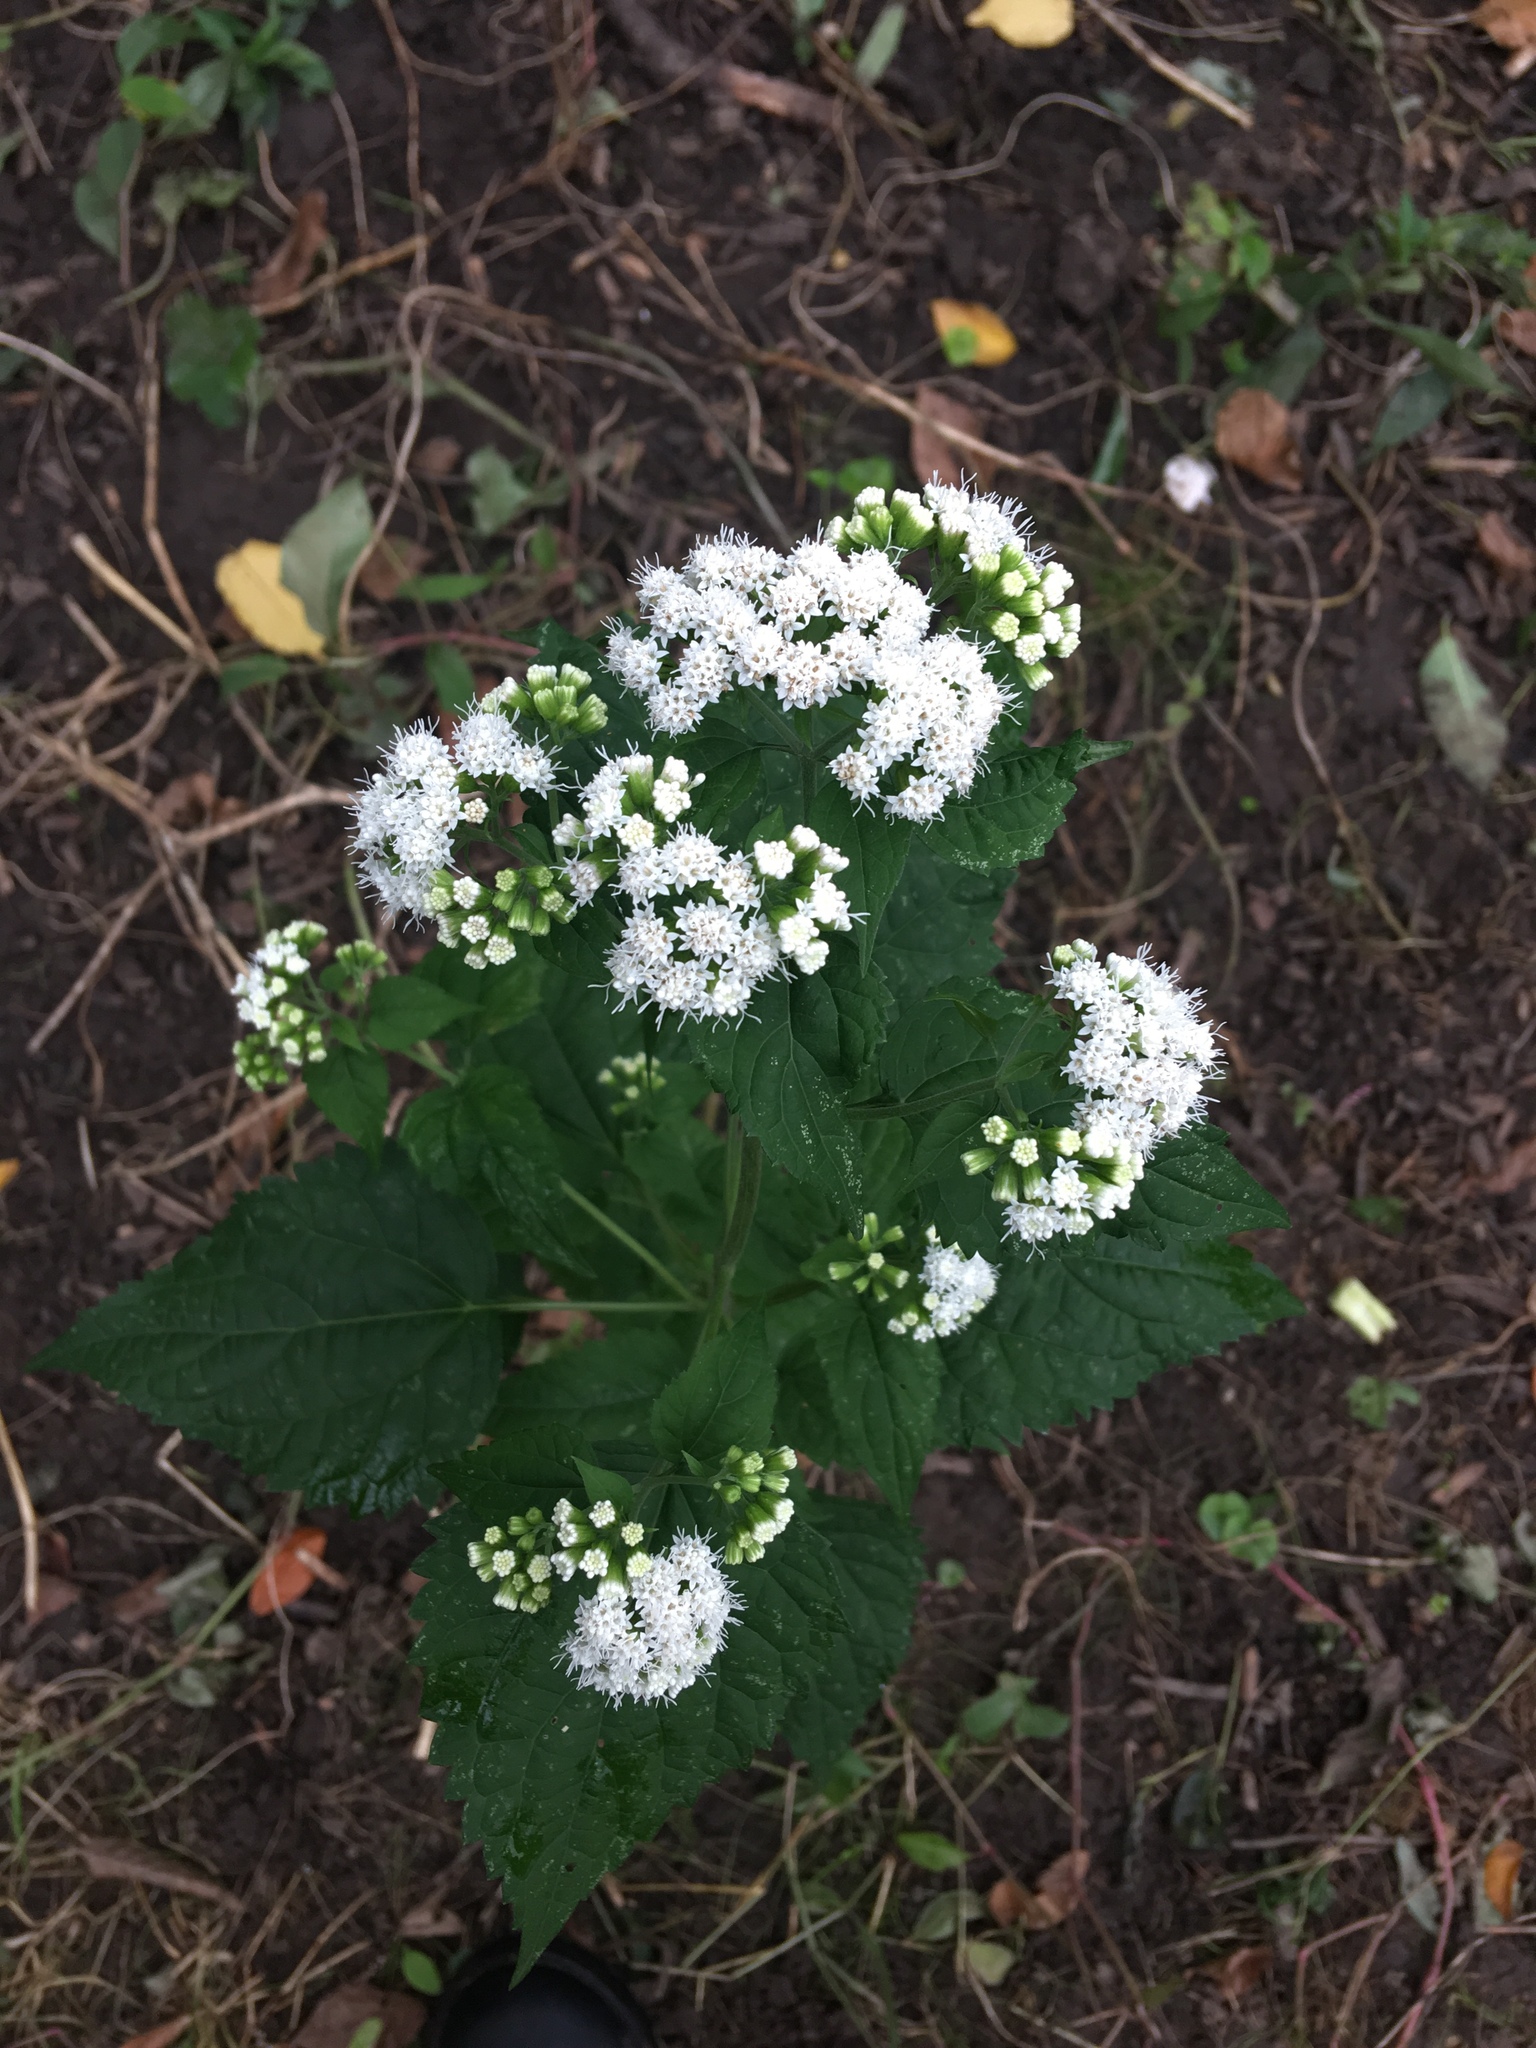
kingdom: Plantae
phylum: Tracheophyta
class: Magnoliopsida
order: Asterales
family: Asteraceae
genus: Ageratina
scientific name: Ageratina altissima
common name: White snakeroot
